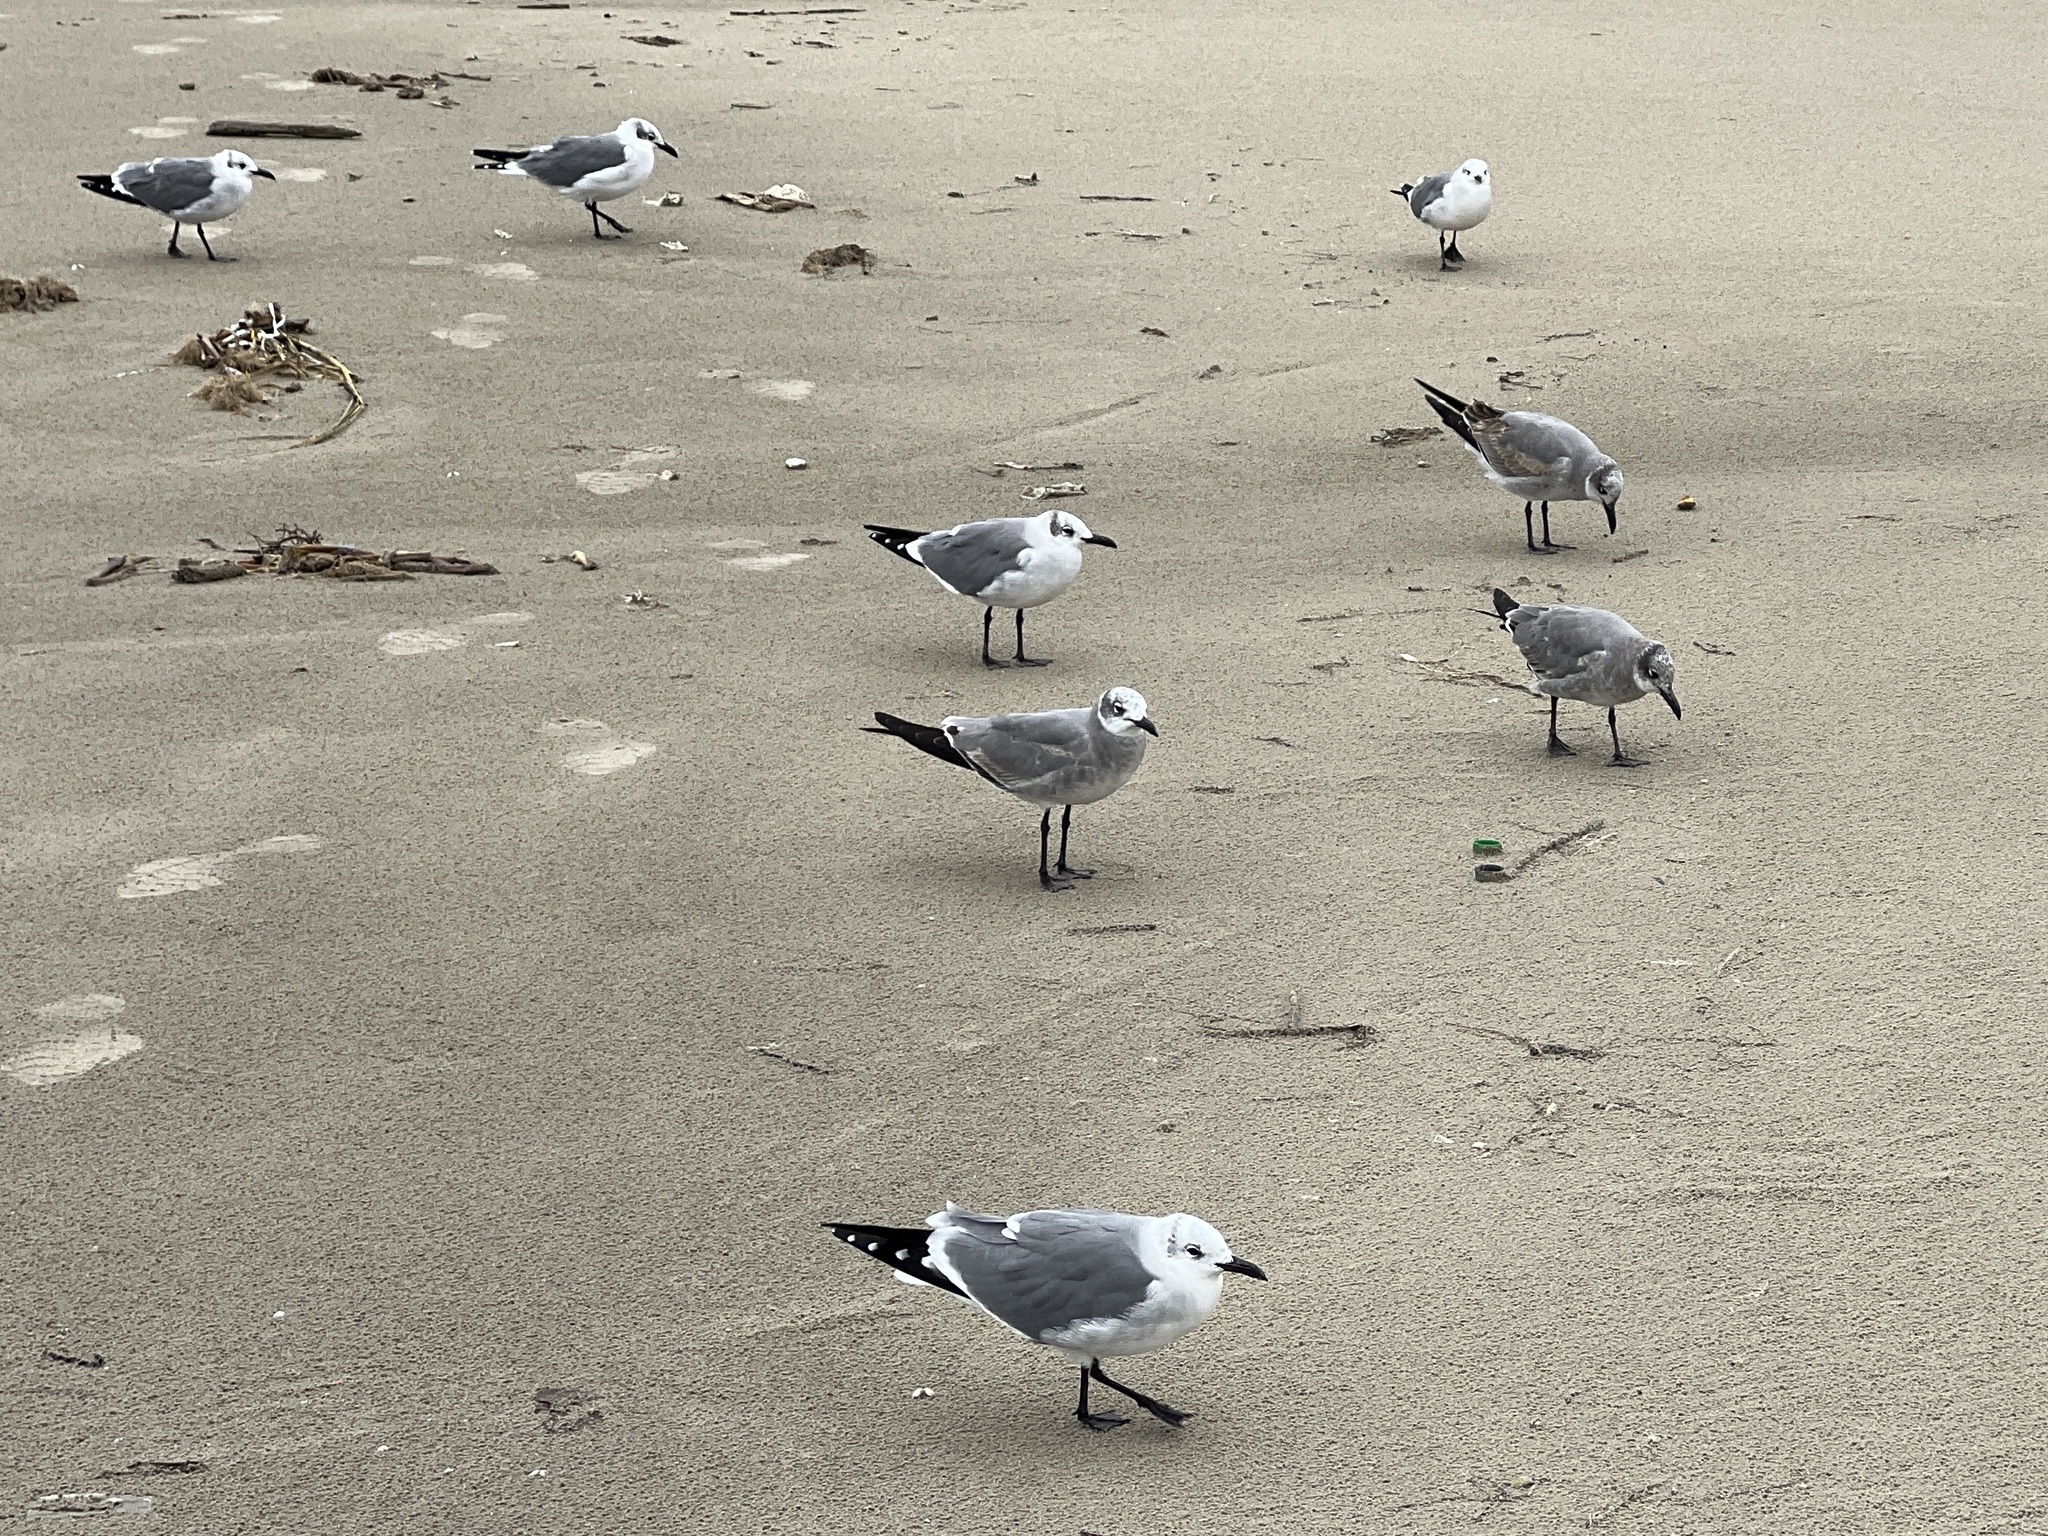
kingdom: Animalia
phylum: Chordata
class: Aves
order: Charadriiformes
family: Laridae
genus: Leucophaeus
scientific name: Leucophaeus atricilla
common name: Laughing gull
